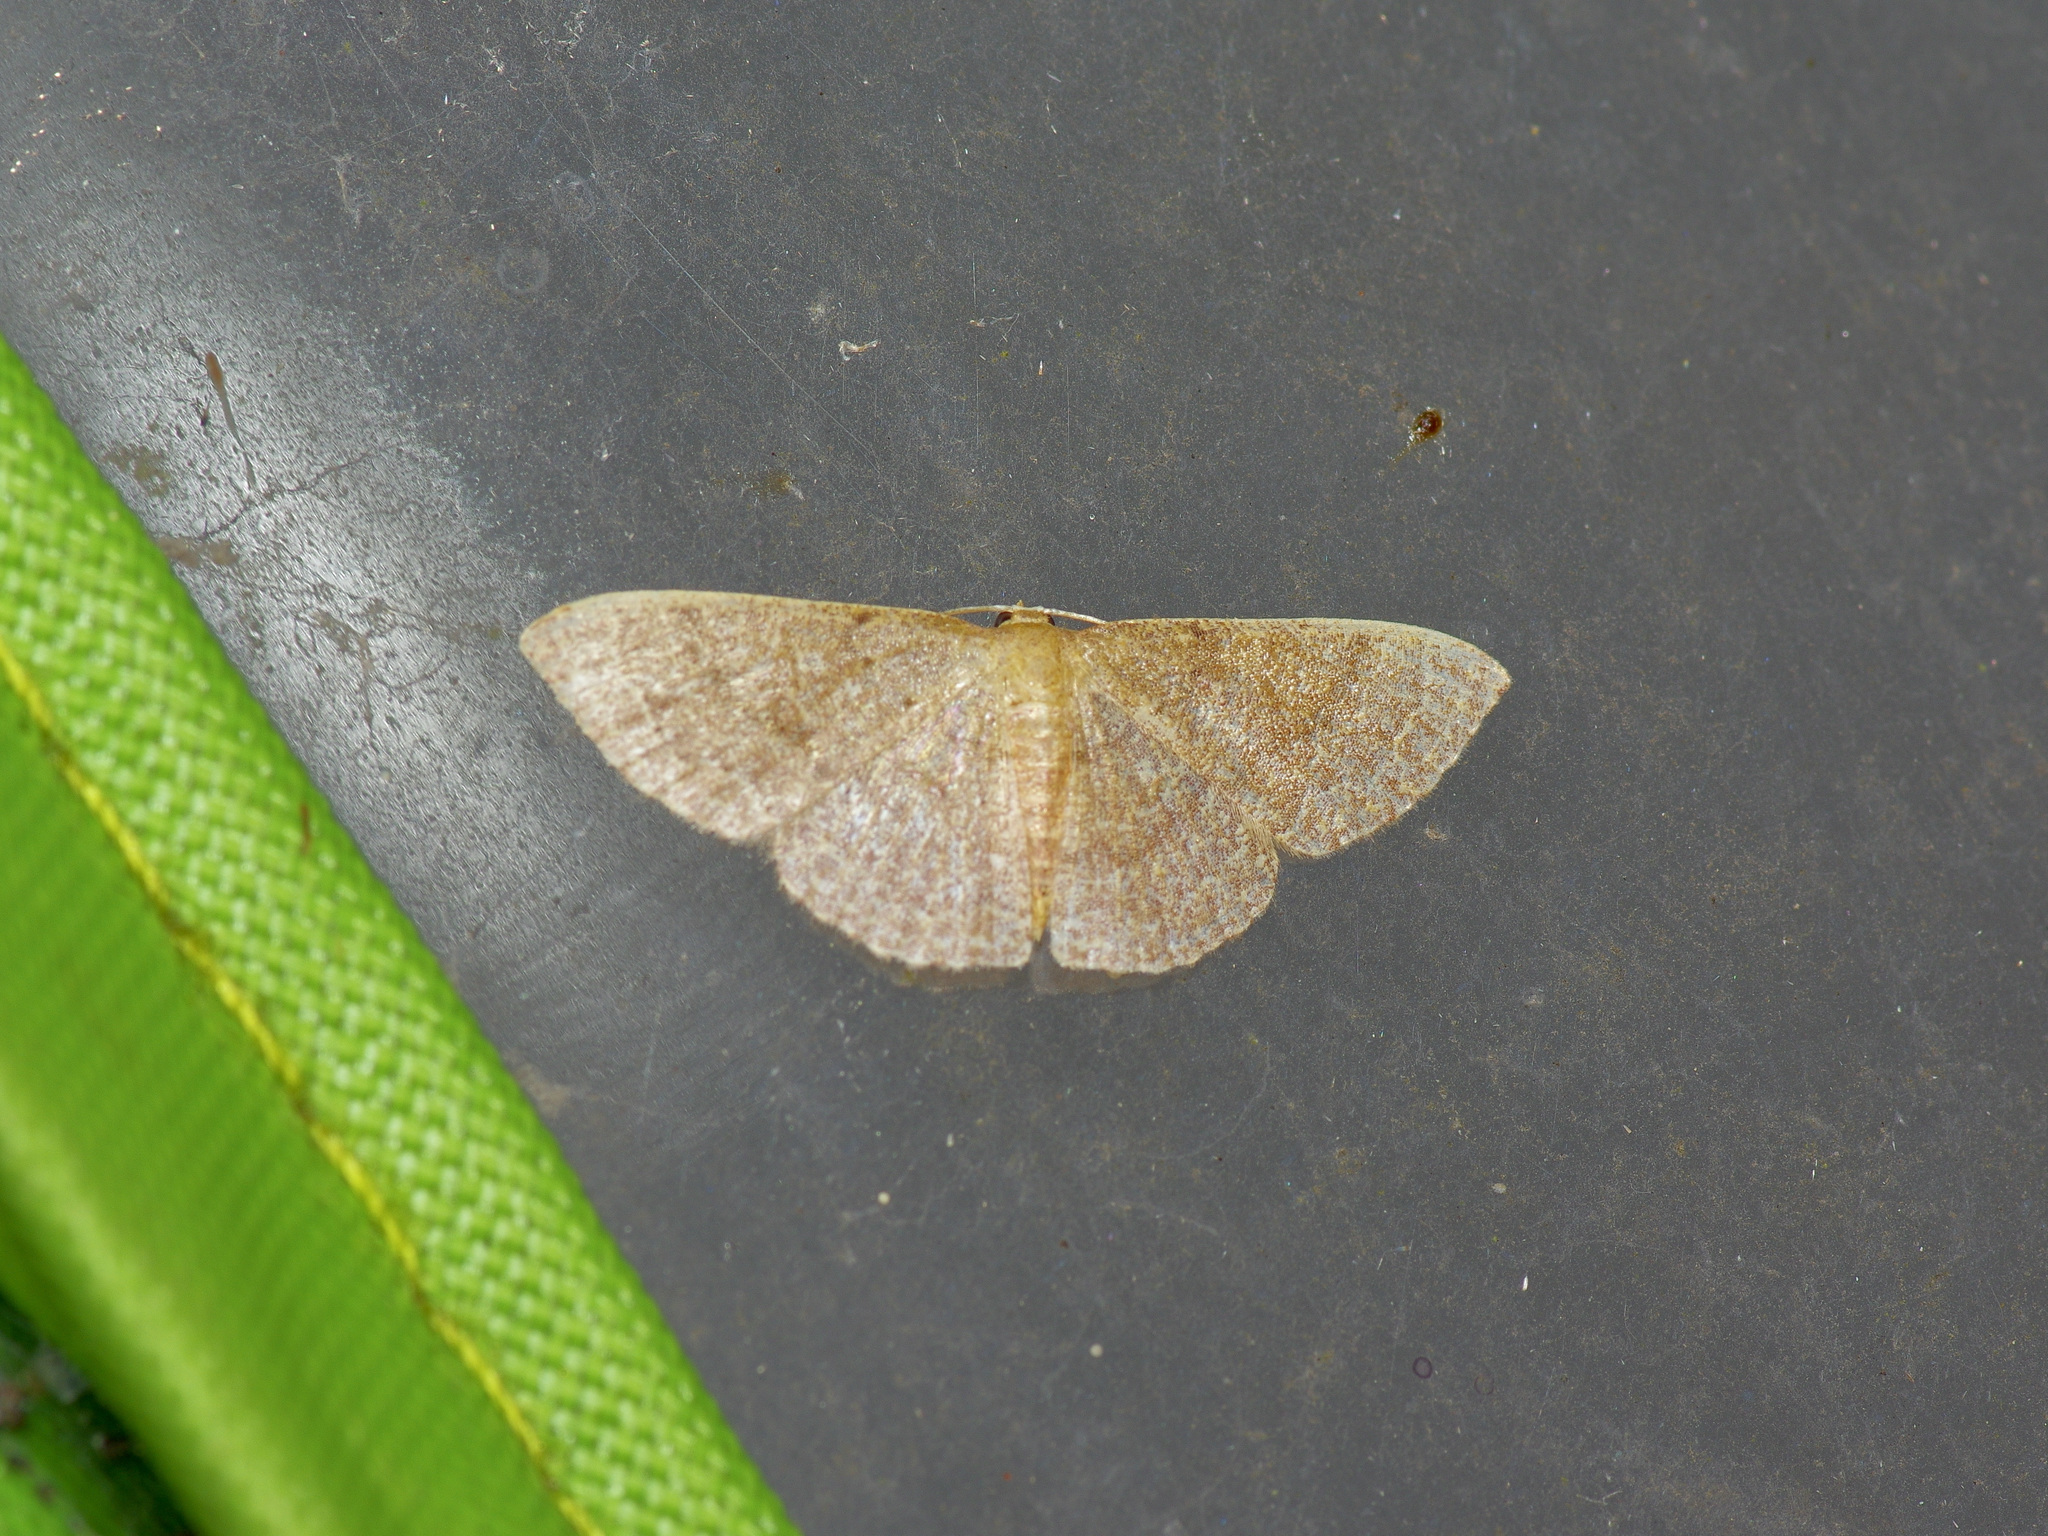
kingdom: Animalia
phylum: Arthropoda
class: Insecta
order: Lepidoptera
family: Geometridae
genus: Pleuroprucha
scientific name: Pleuroprucha insulsaria
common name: Common tan wave
